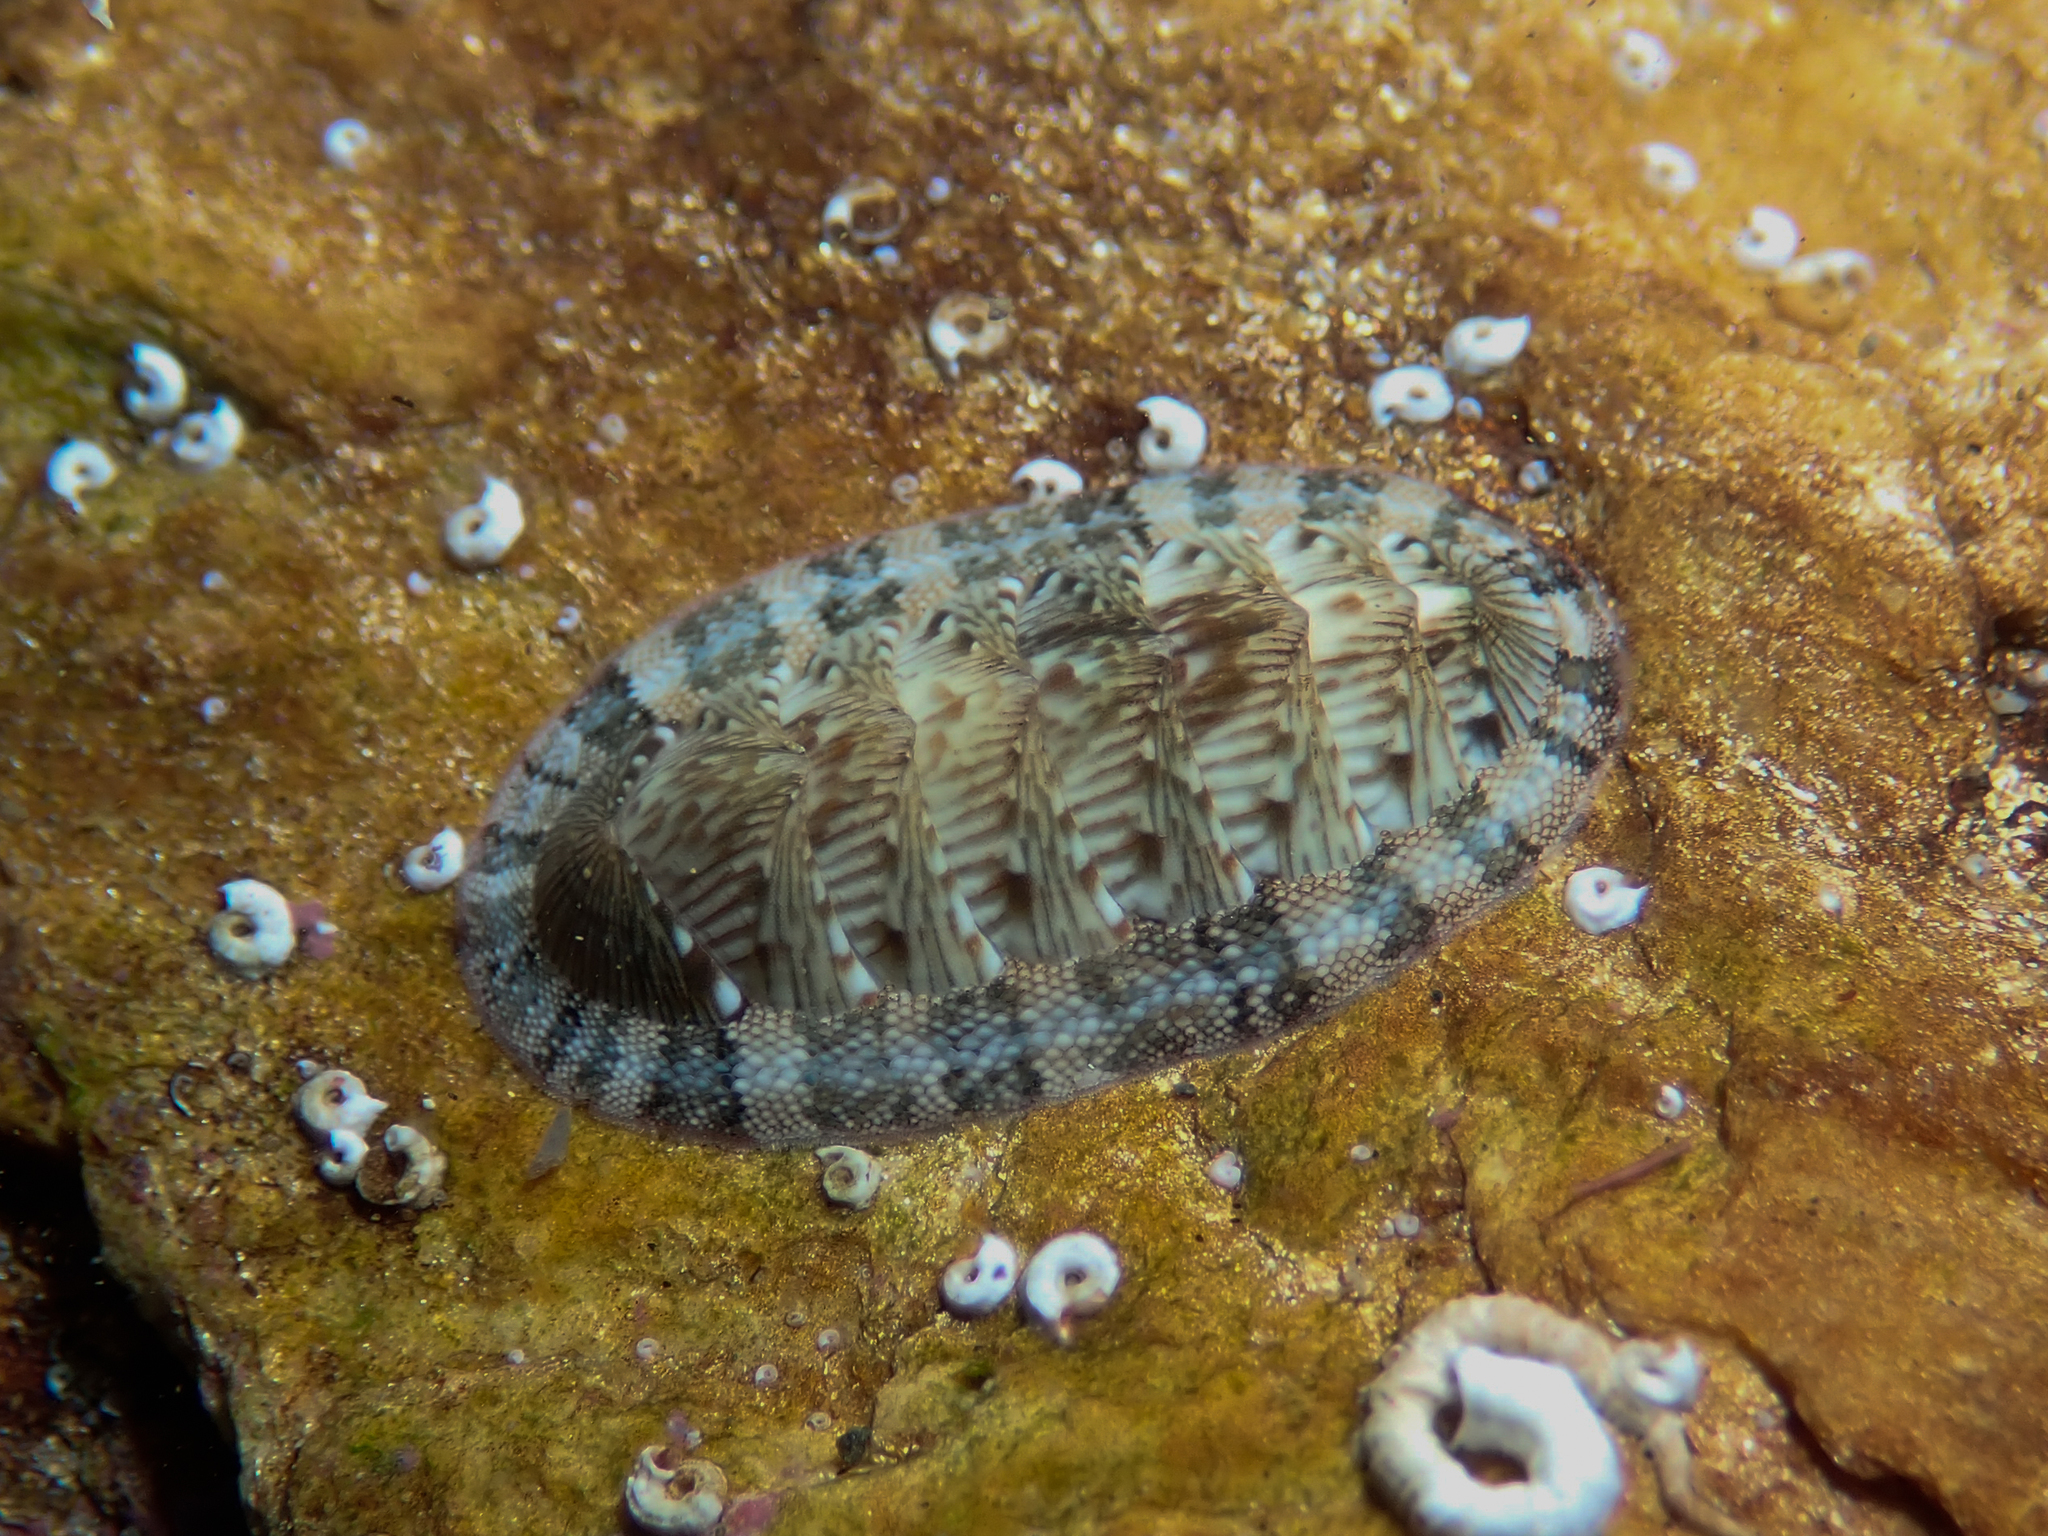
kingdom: Animalia
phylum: Mollusca
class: Polyplacophora
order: Chitonida
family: Chitonidae
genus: Rhyssoplax
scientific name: Rhyssoplax olivacea
